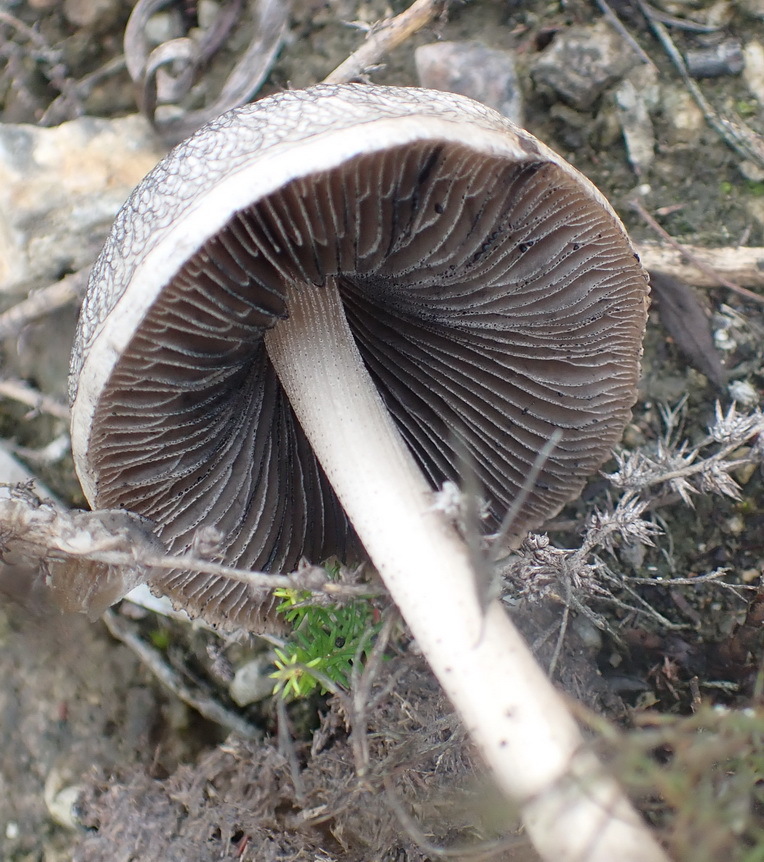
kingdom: Fungi
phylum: Basidiomycota
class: Agaricomycetes
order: Agaricales
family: Bolbitiaceae
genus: Panaeolus
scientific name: Panaeolus antillarum
